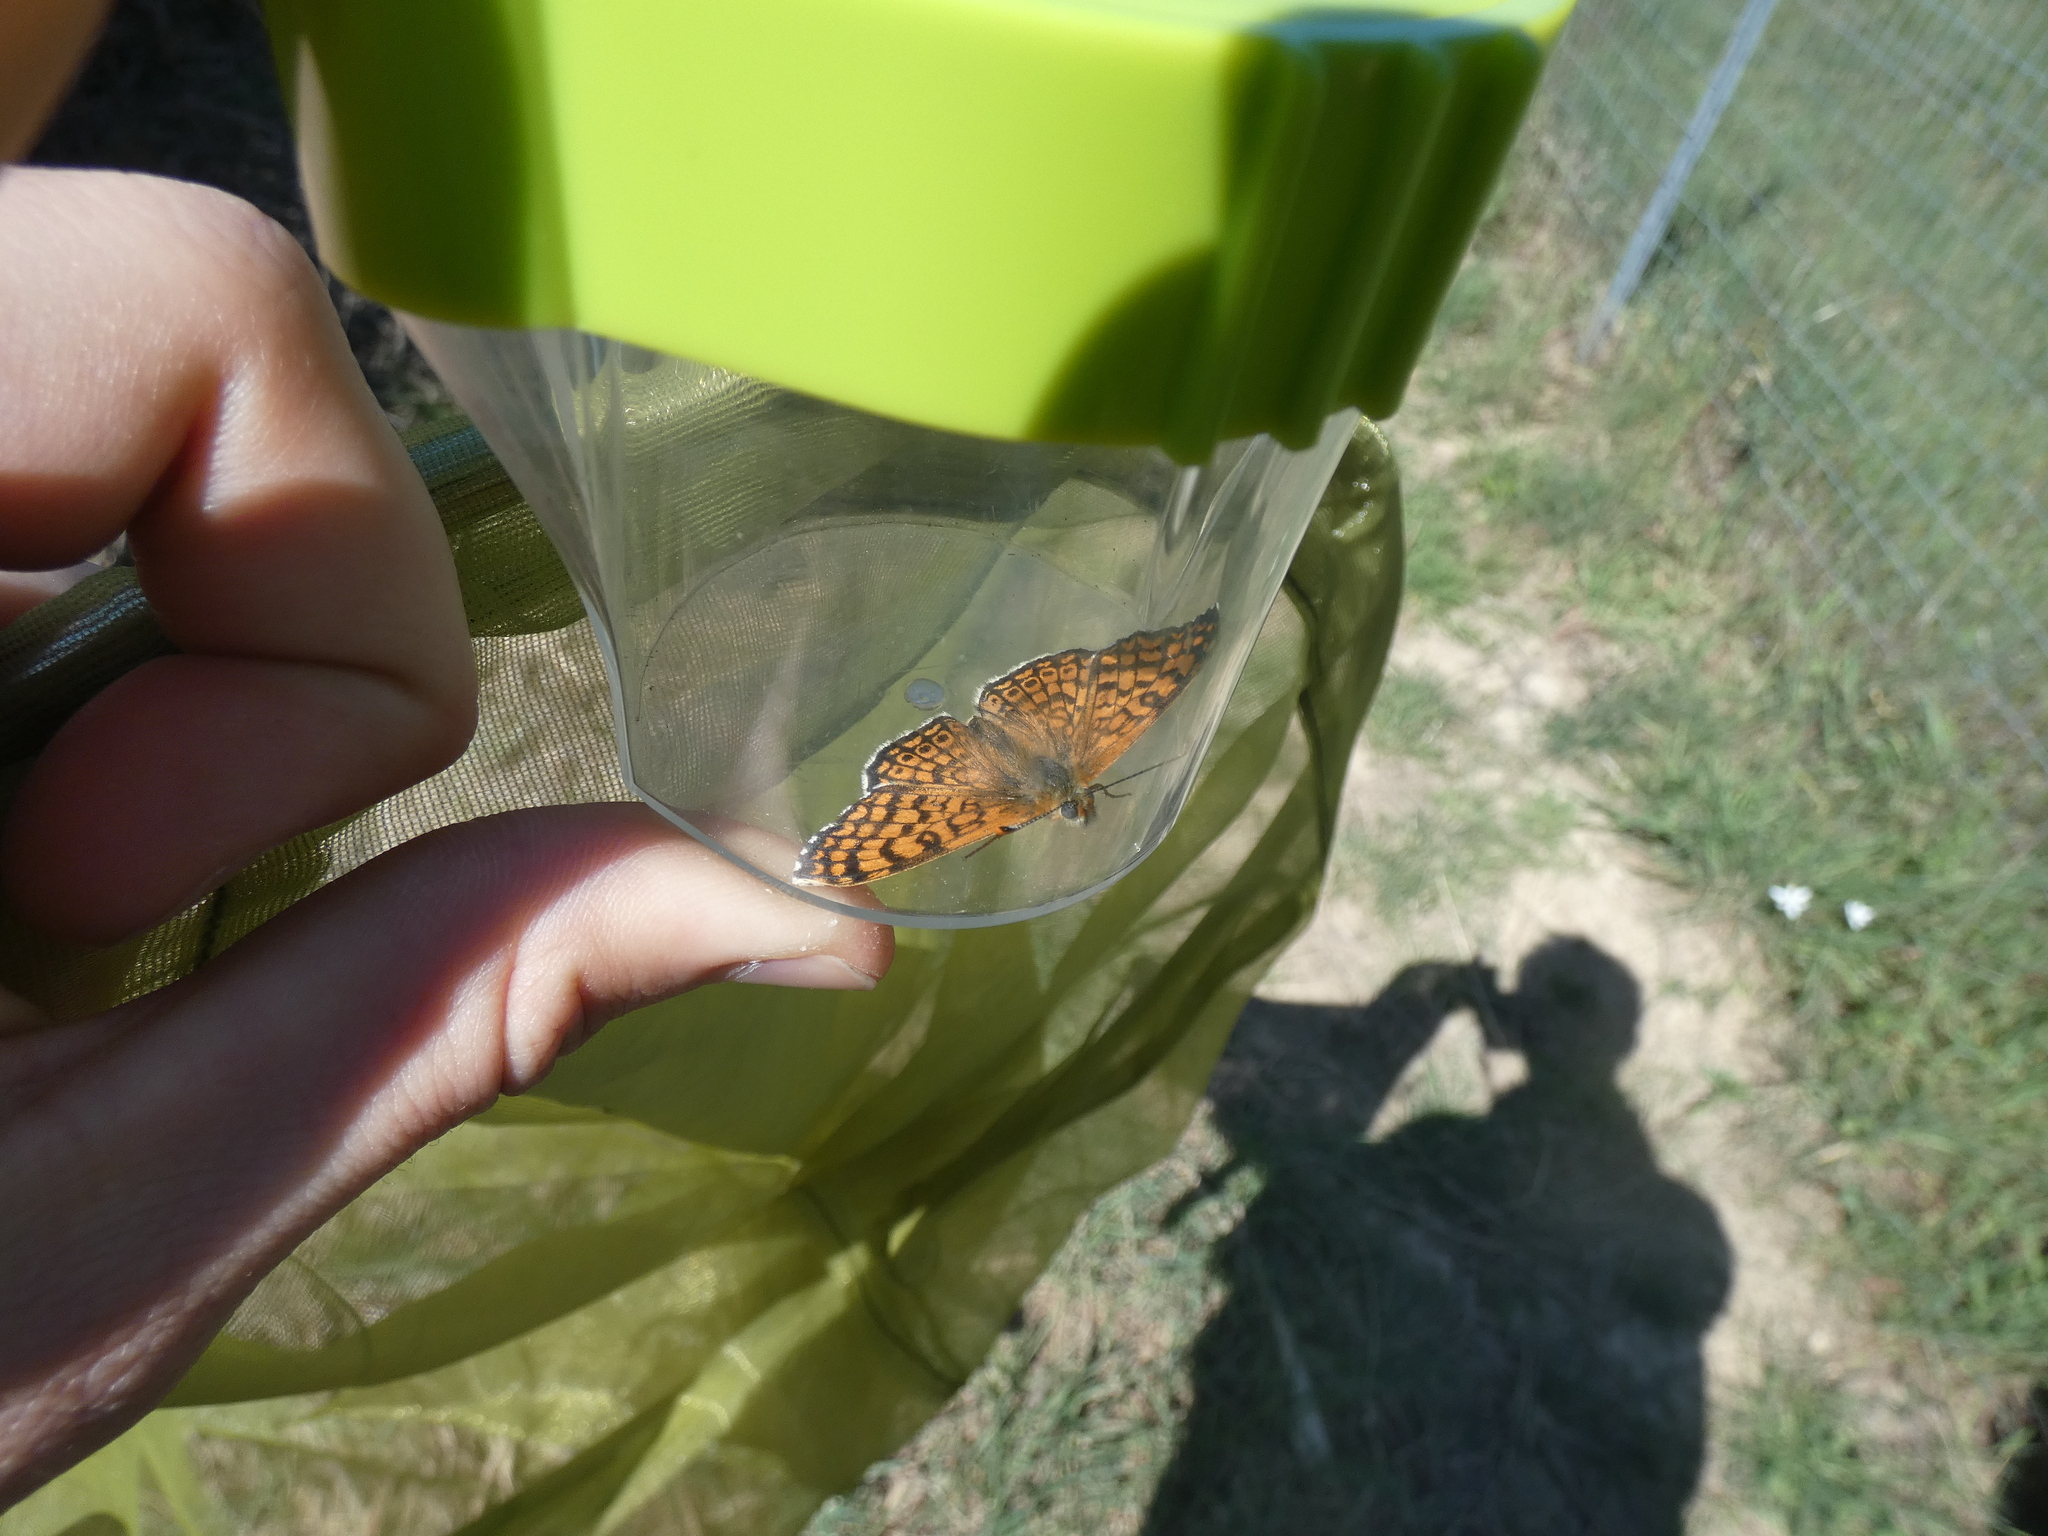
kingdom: Animalia
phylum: Arthropoda
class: Insecta
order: Lepidoptera
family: Nymphalidae
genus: Melitaea
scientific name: Melitaea cinxia
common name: Glanville fritillary
